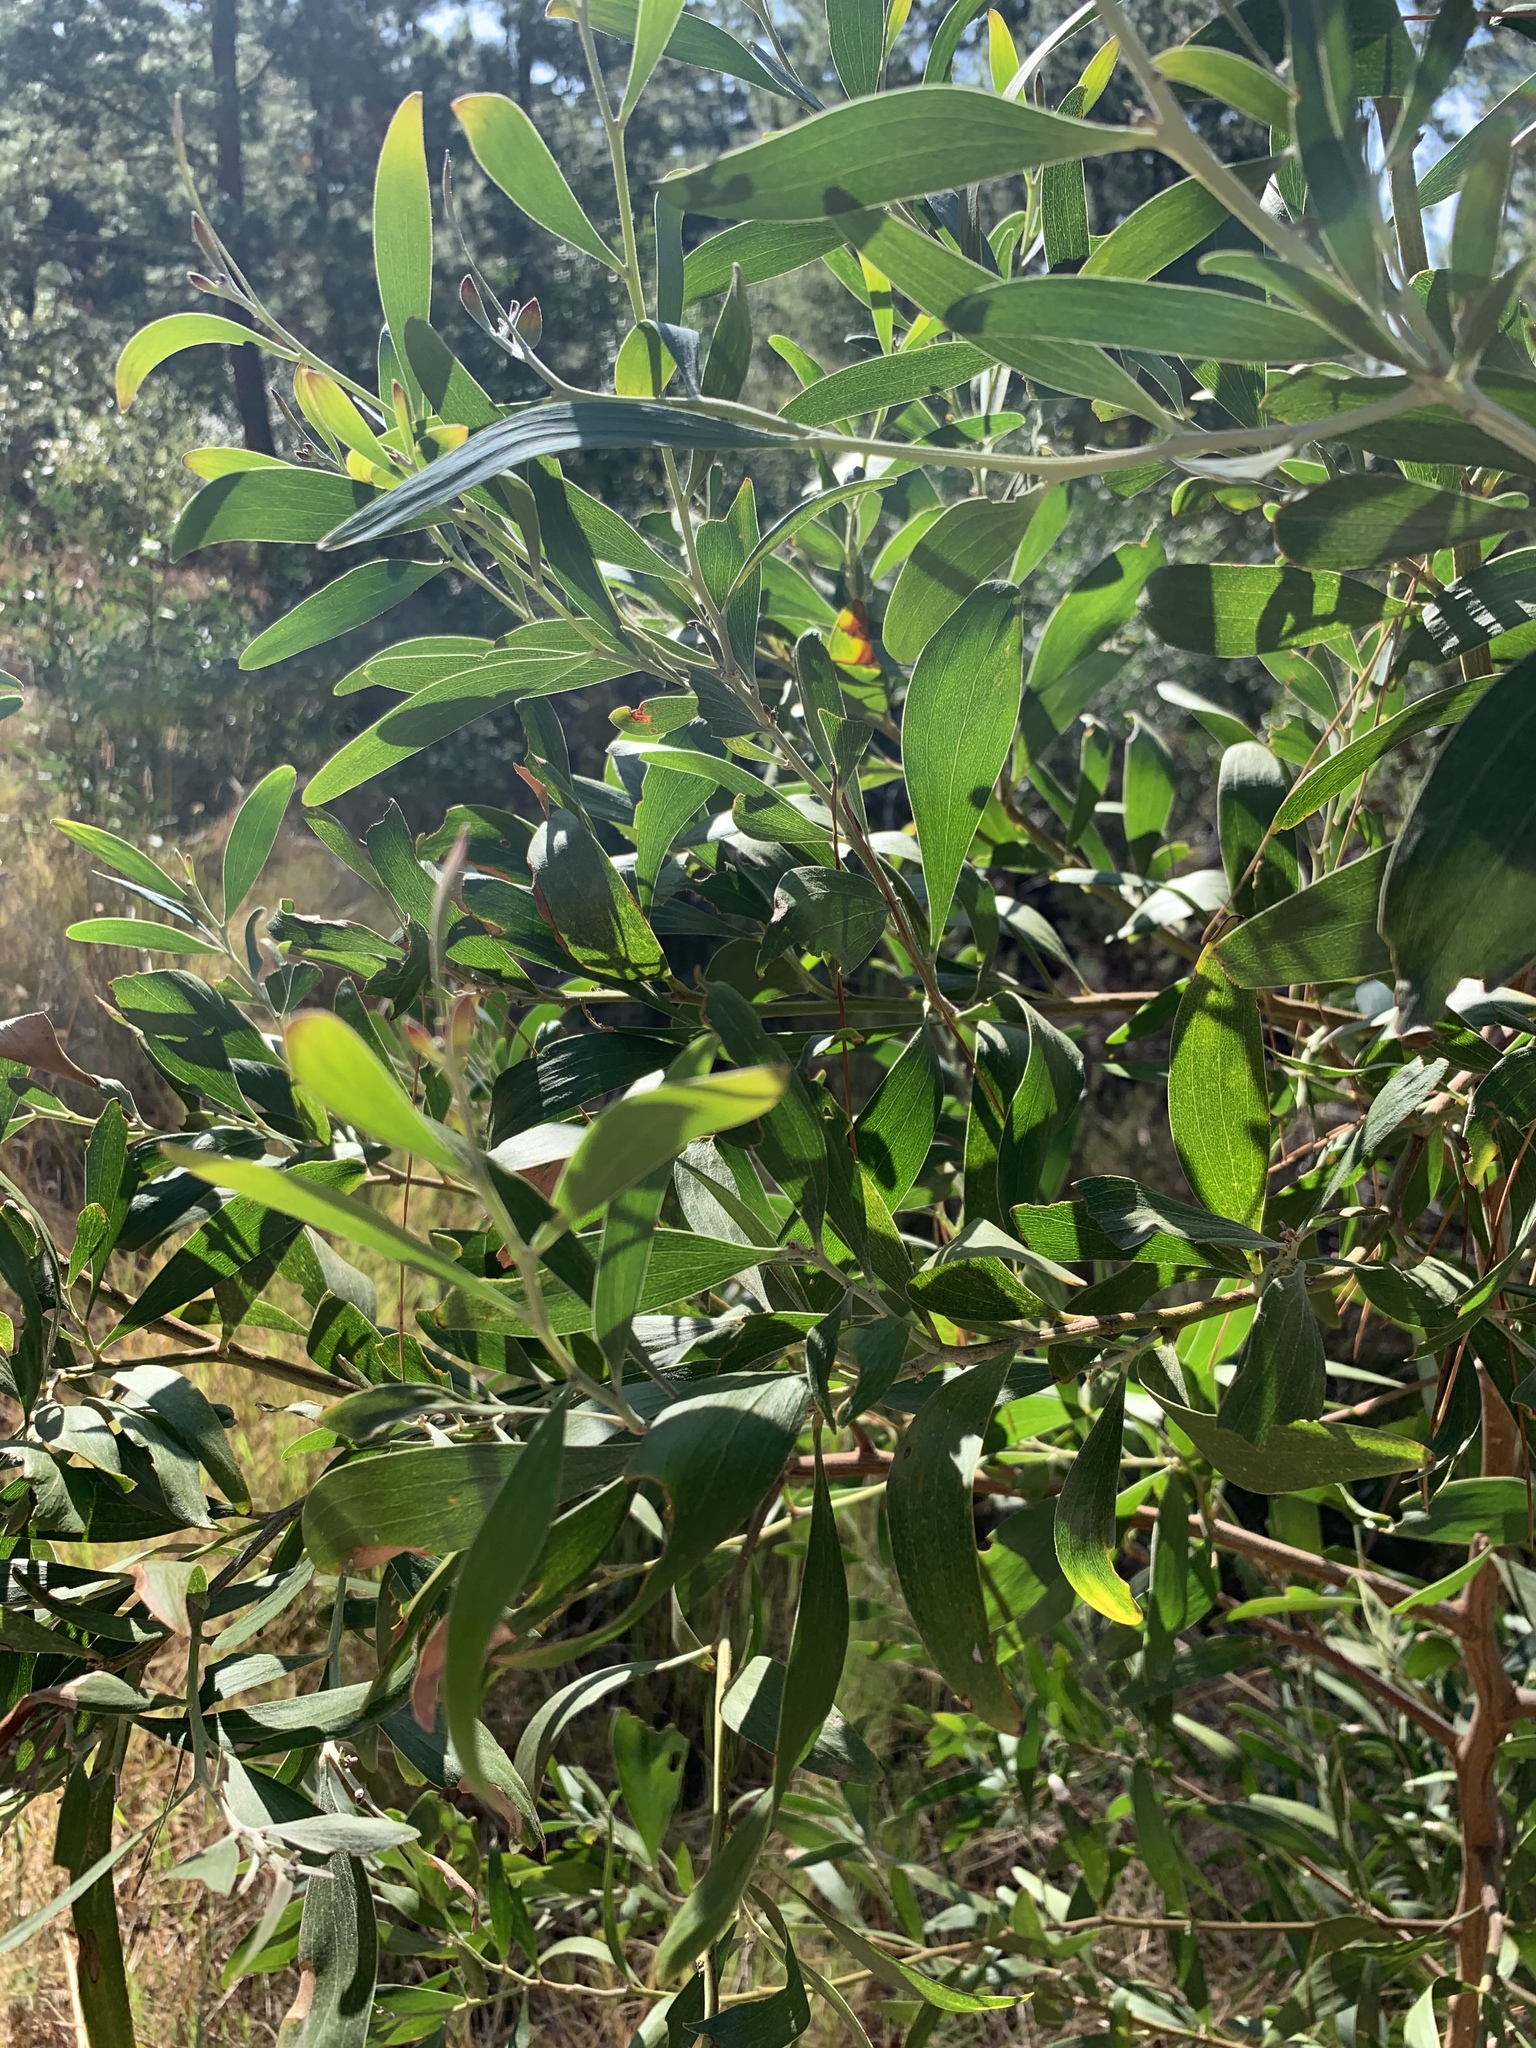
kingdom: Plantae
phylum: Tracheophyta
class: Magnoliopsida
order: Fabales
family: Fabaceae
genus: Acacia
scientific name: Acacia melanoxylon
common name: Blackwood
